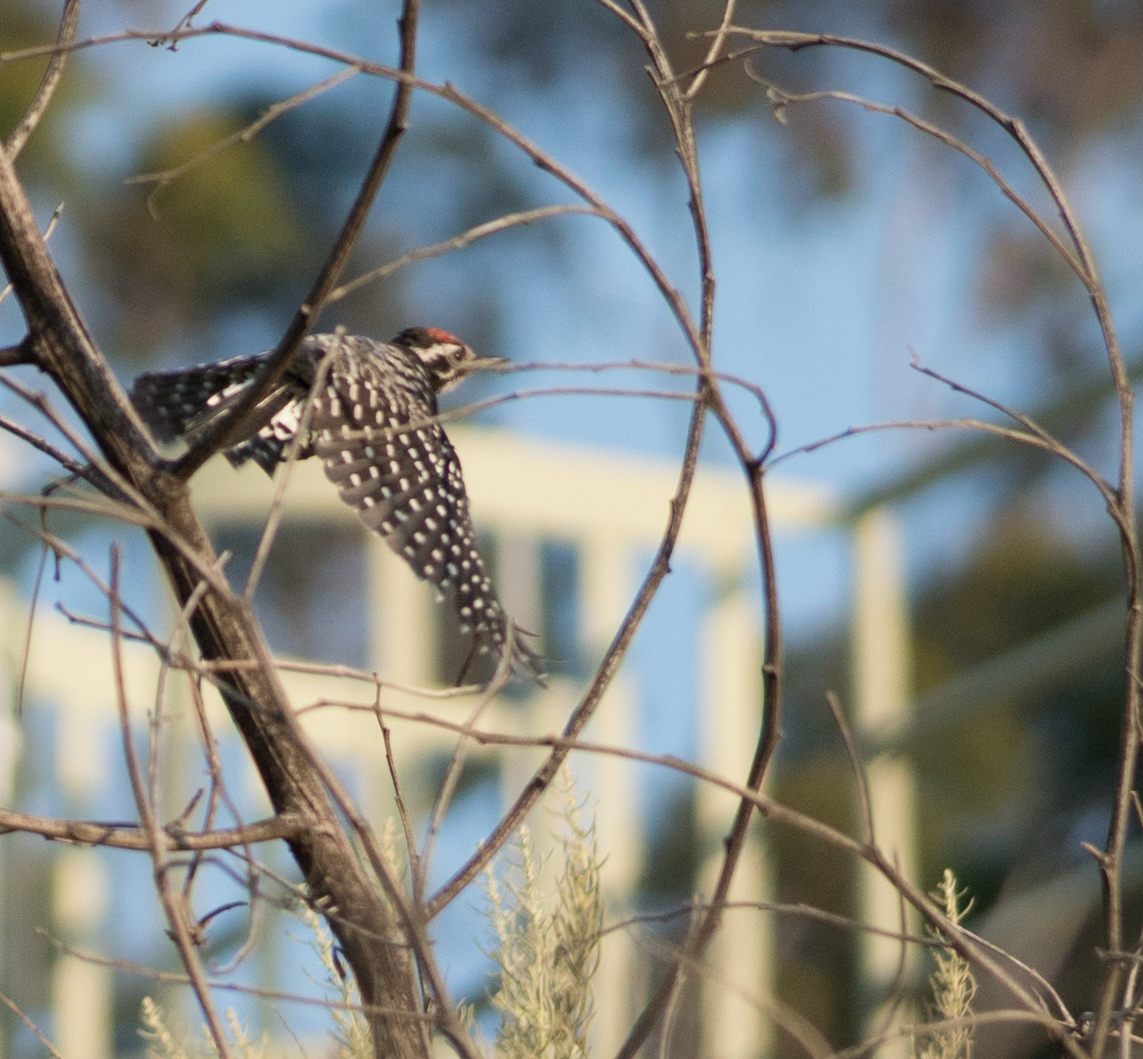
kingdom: Animalia
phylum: Chordata
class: Aves
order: Piciformes
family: Picidae
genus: Dryobates
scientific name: Dryobates nuttallii
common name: Nuttall's woodpecker
